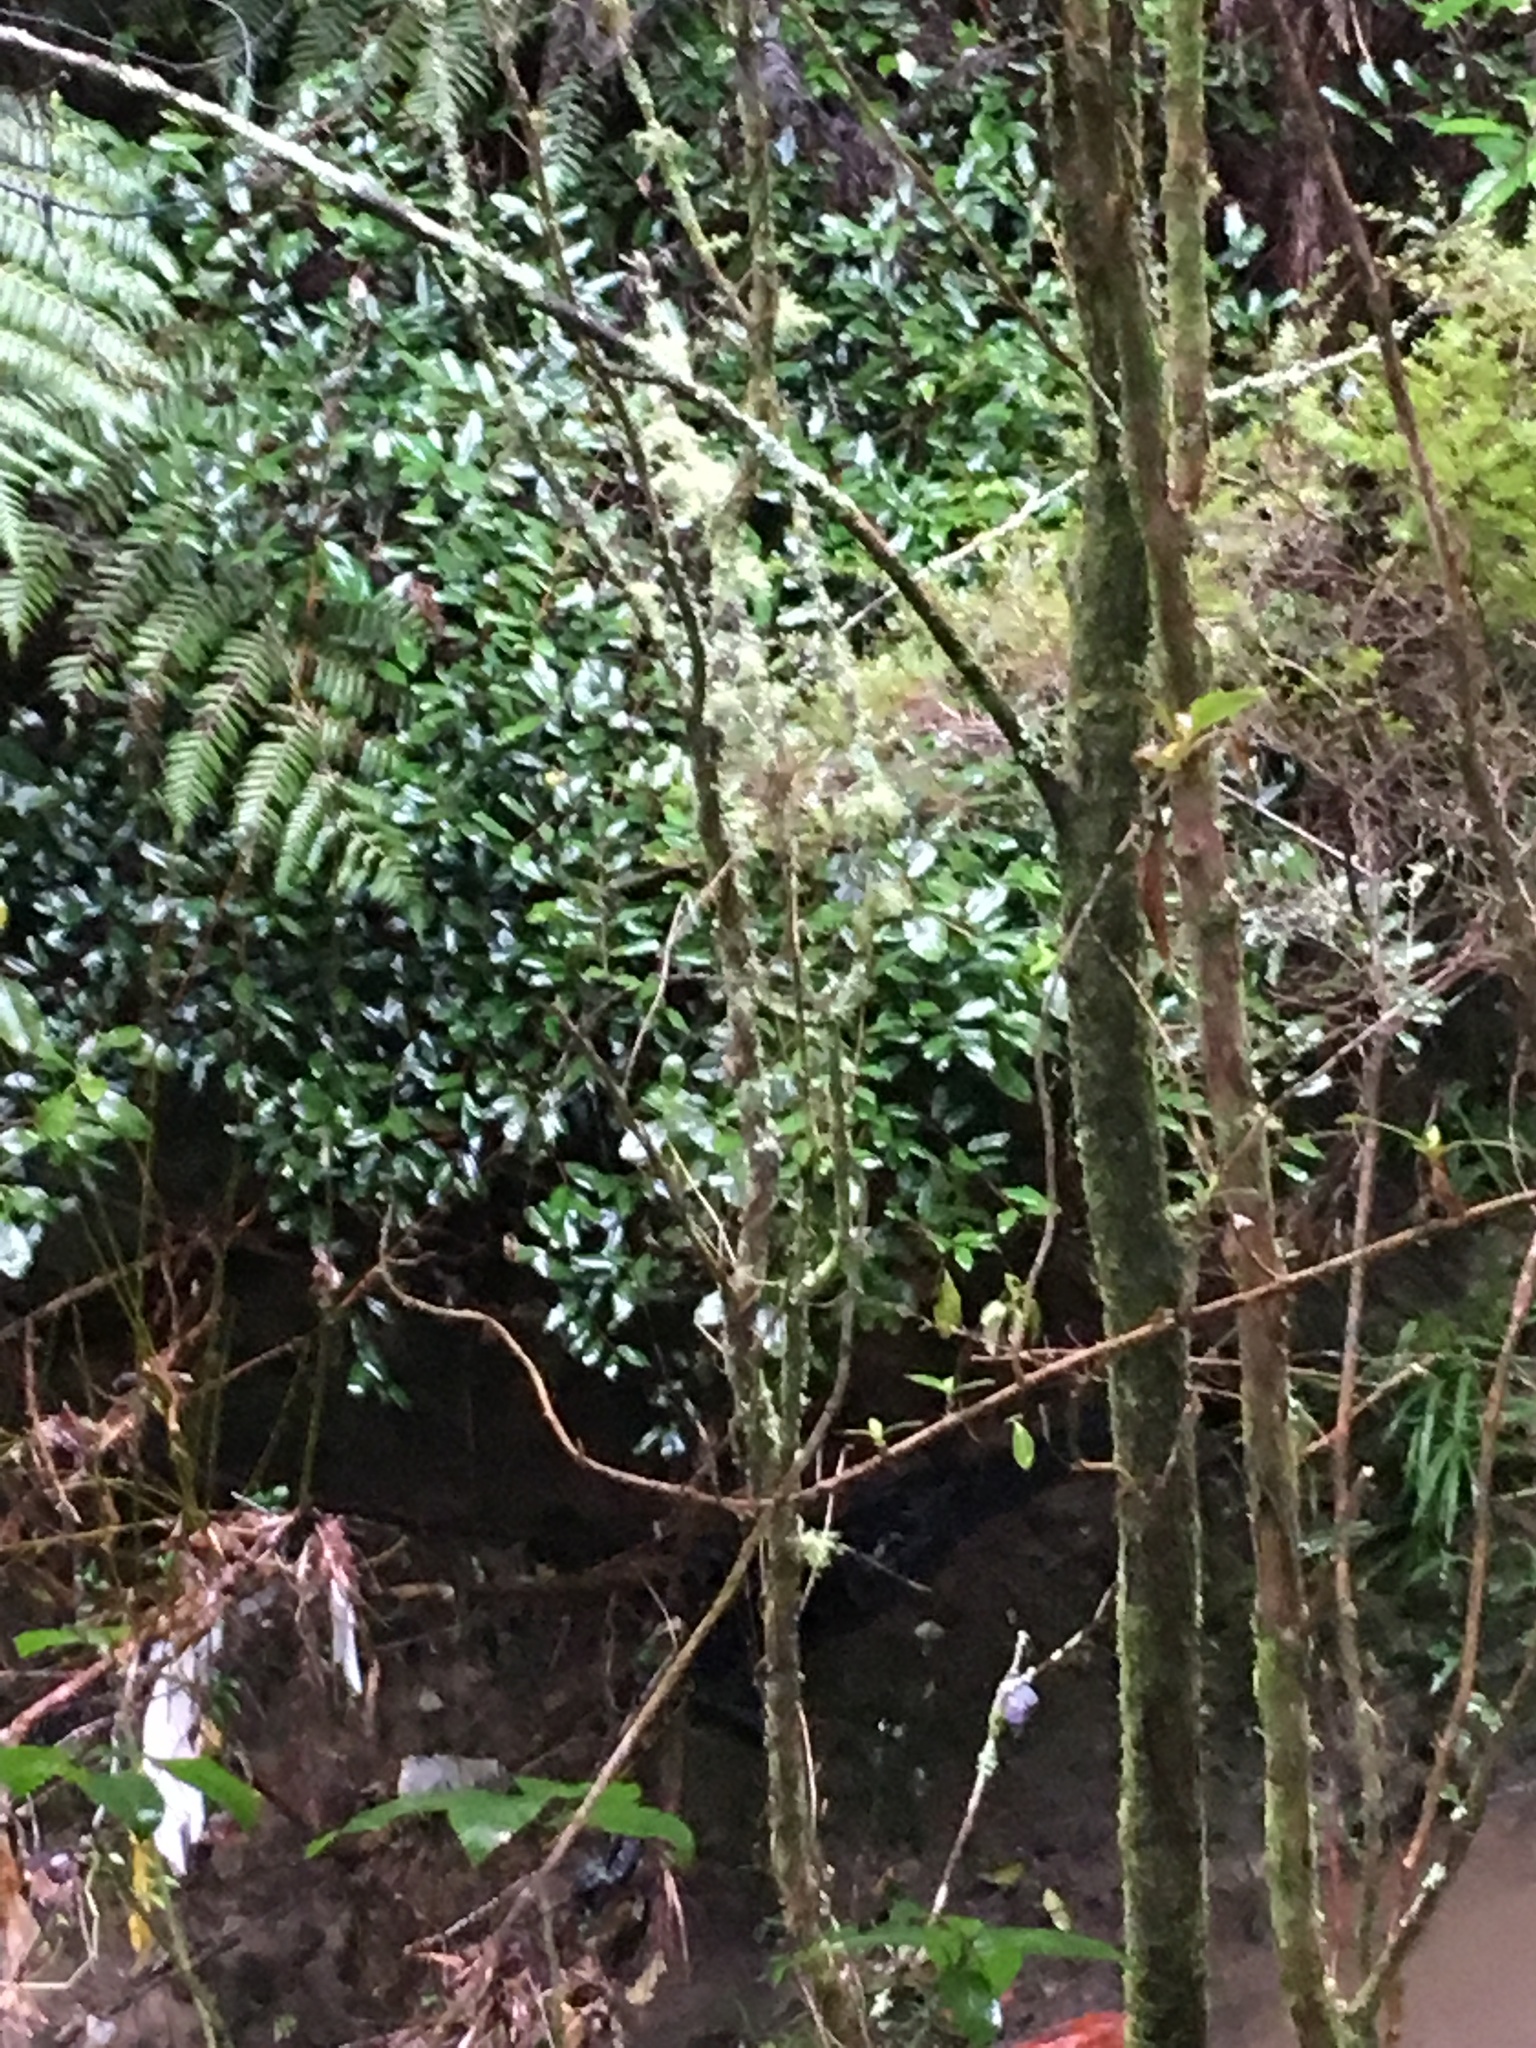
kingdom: Plantae
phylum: Tracheophyta
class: Magnoliopsida
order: Rosales
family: Elaeagnaceae
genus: Elaeagnus
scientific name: Elaeagnus reflexa
